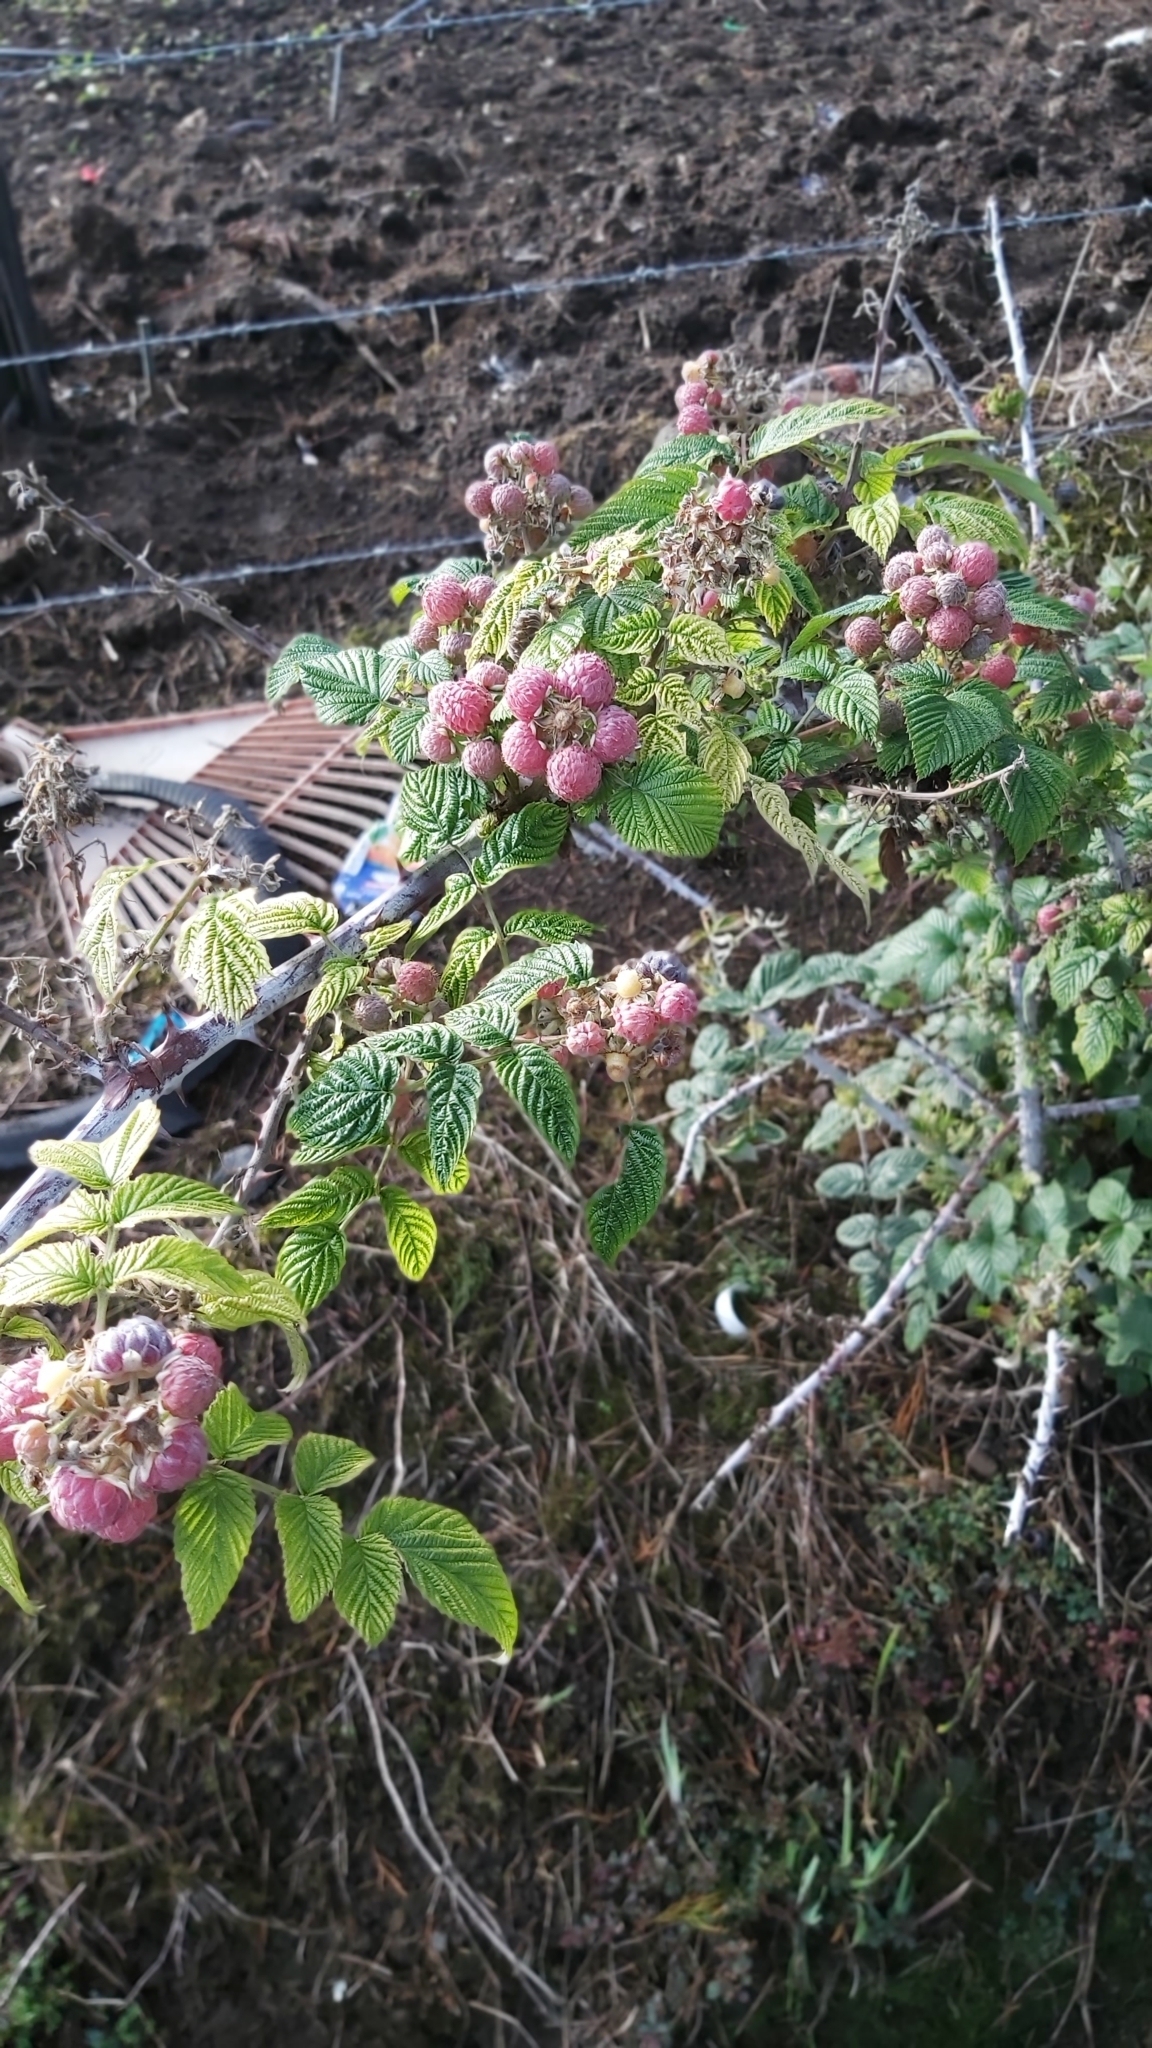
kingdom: Plantae
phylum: Tracheophyta
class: Magnoliopsida
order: Rosales
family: Rosaceae
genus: Rubus
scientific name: Rubus idaeus
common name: Raspberry
